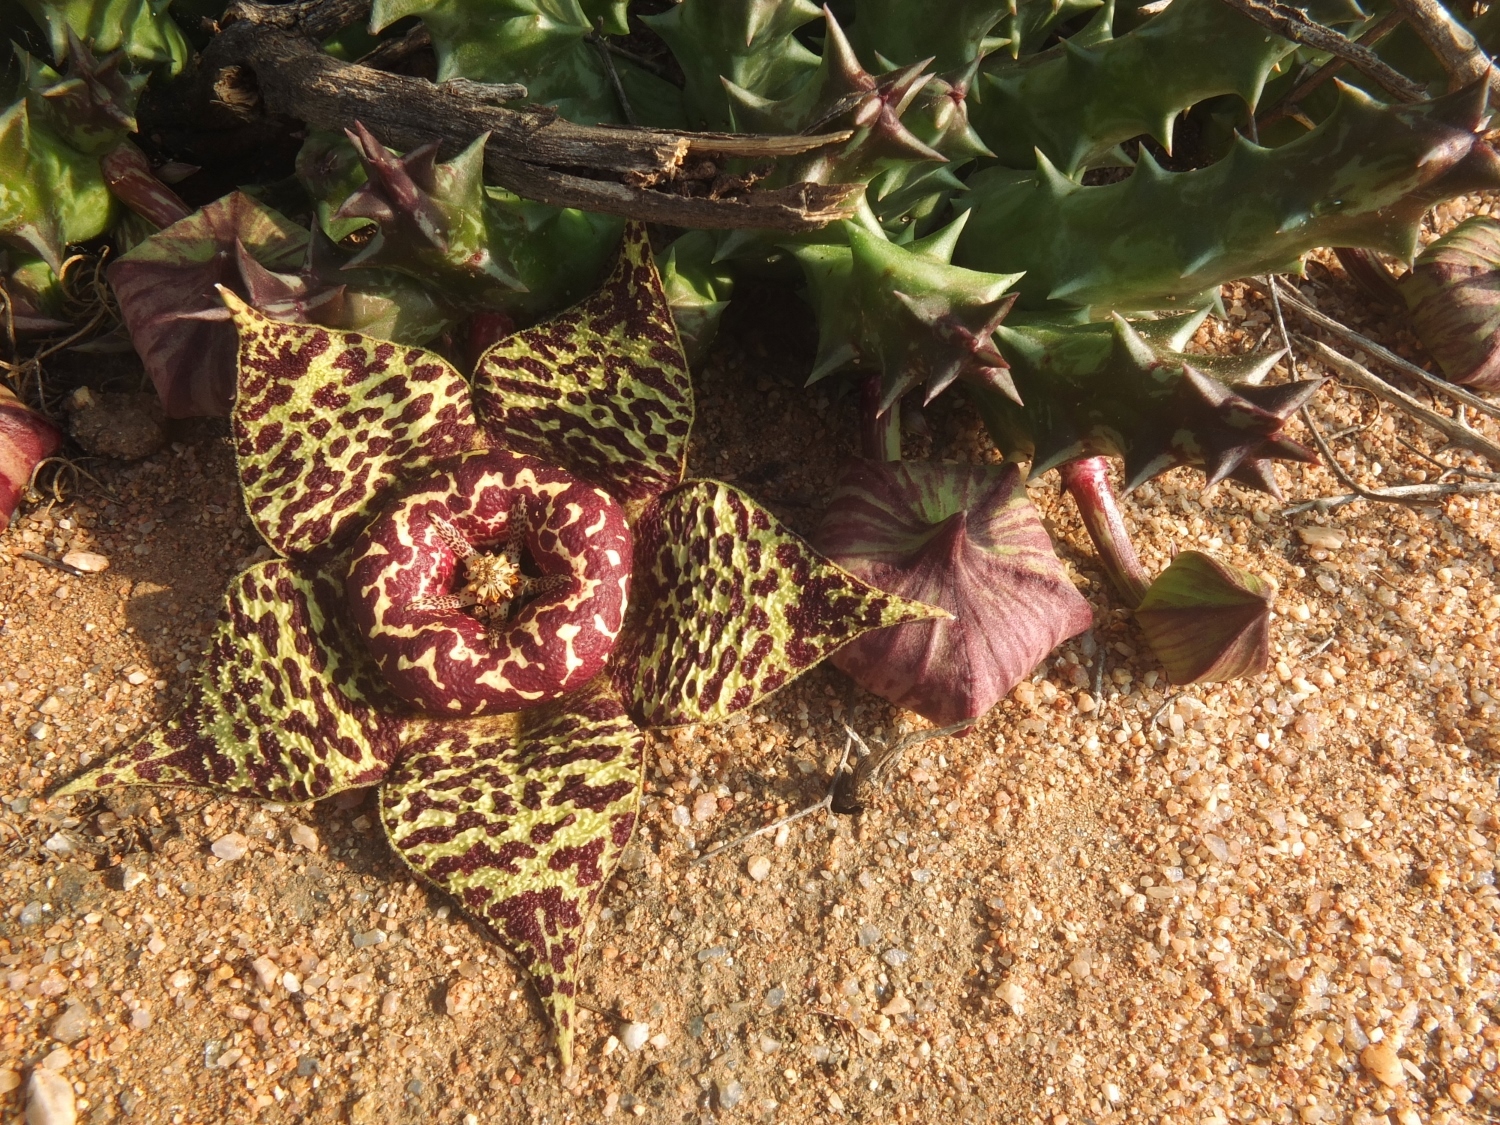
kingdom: Plantae
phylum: Tracheophyta
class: Magnoliopsida
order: Gentianales
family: Apocynaceae
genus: Ceropegia
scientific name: Ceropegia namaquana
